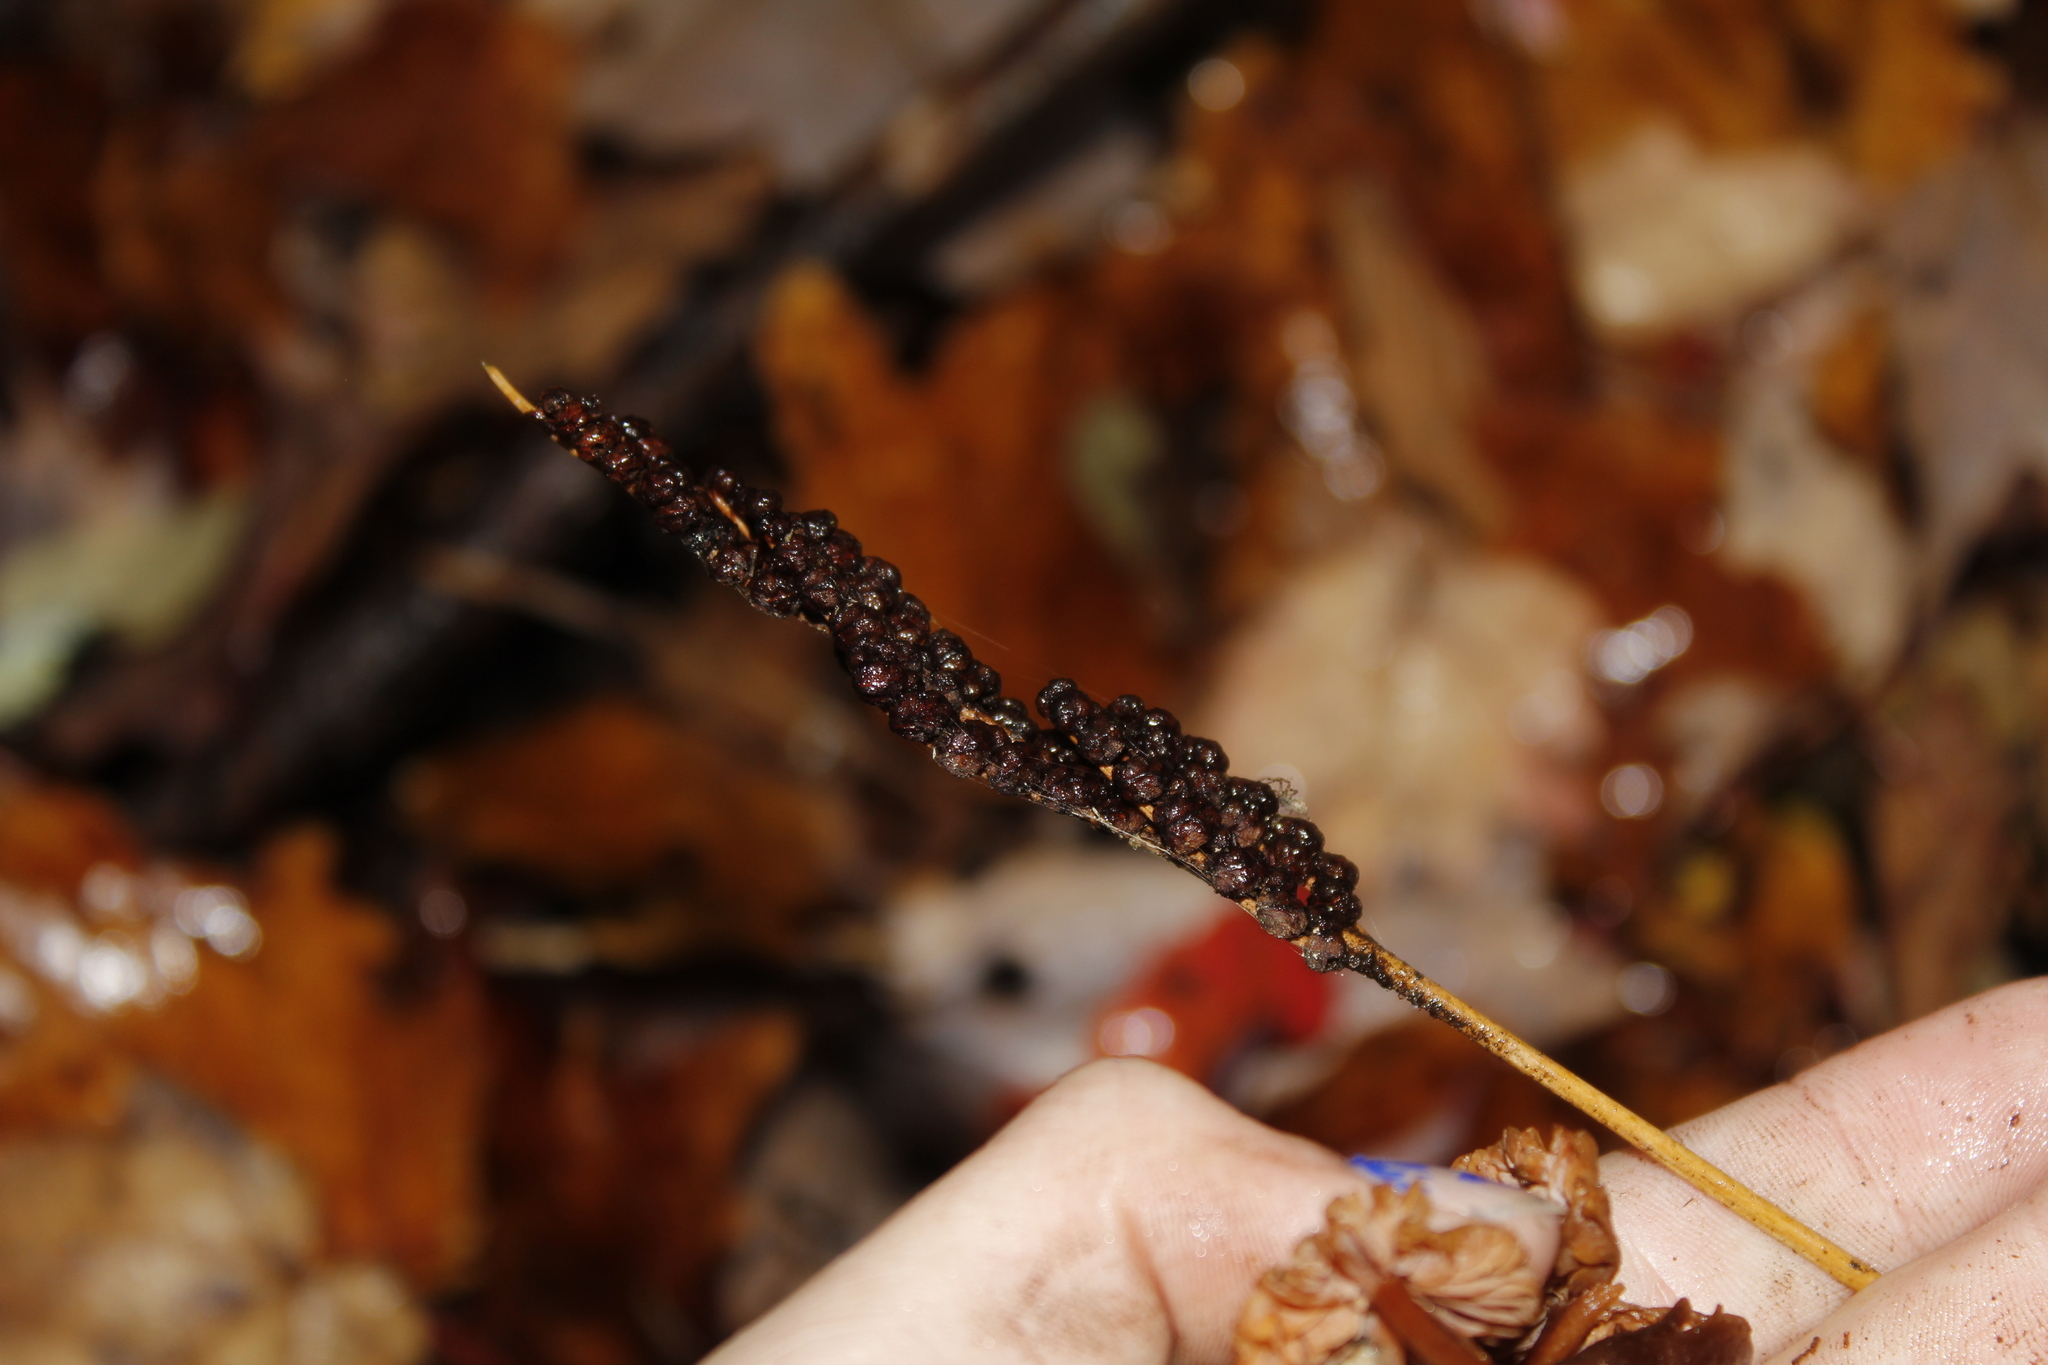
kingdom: Plantae
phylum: Tracheophyta
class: Polypodiopsida
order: Polypodiales
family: Onocleaceae
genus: Onoclea
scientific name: Onoclea sensibilis
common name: Sensitive fern
